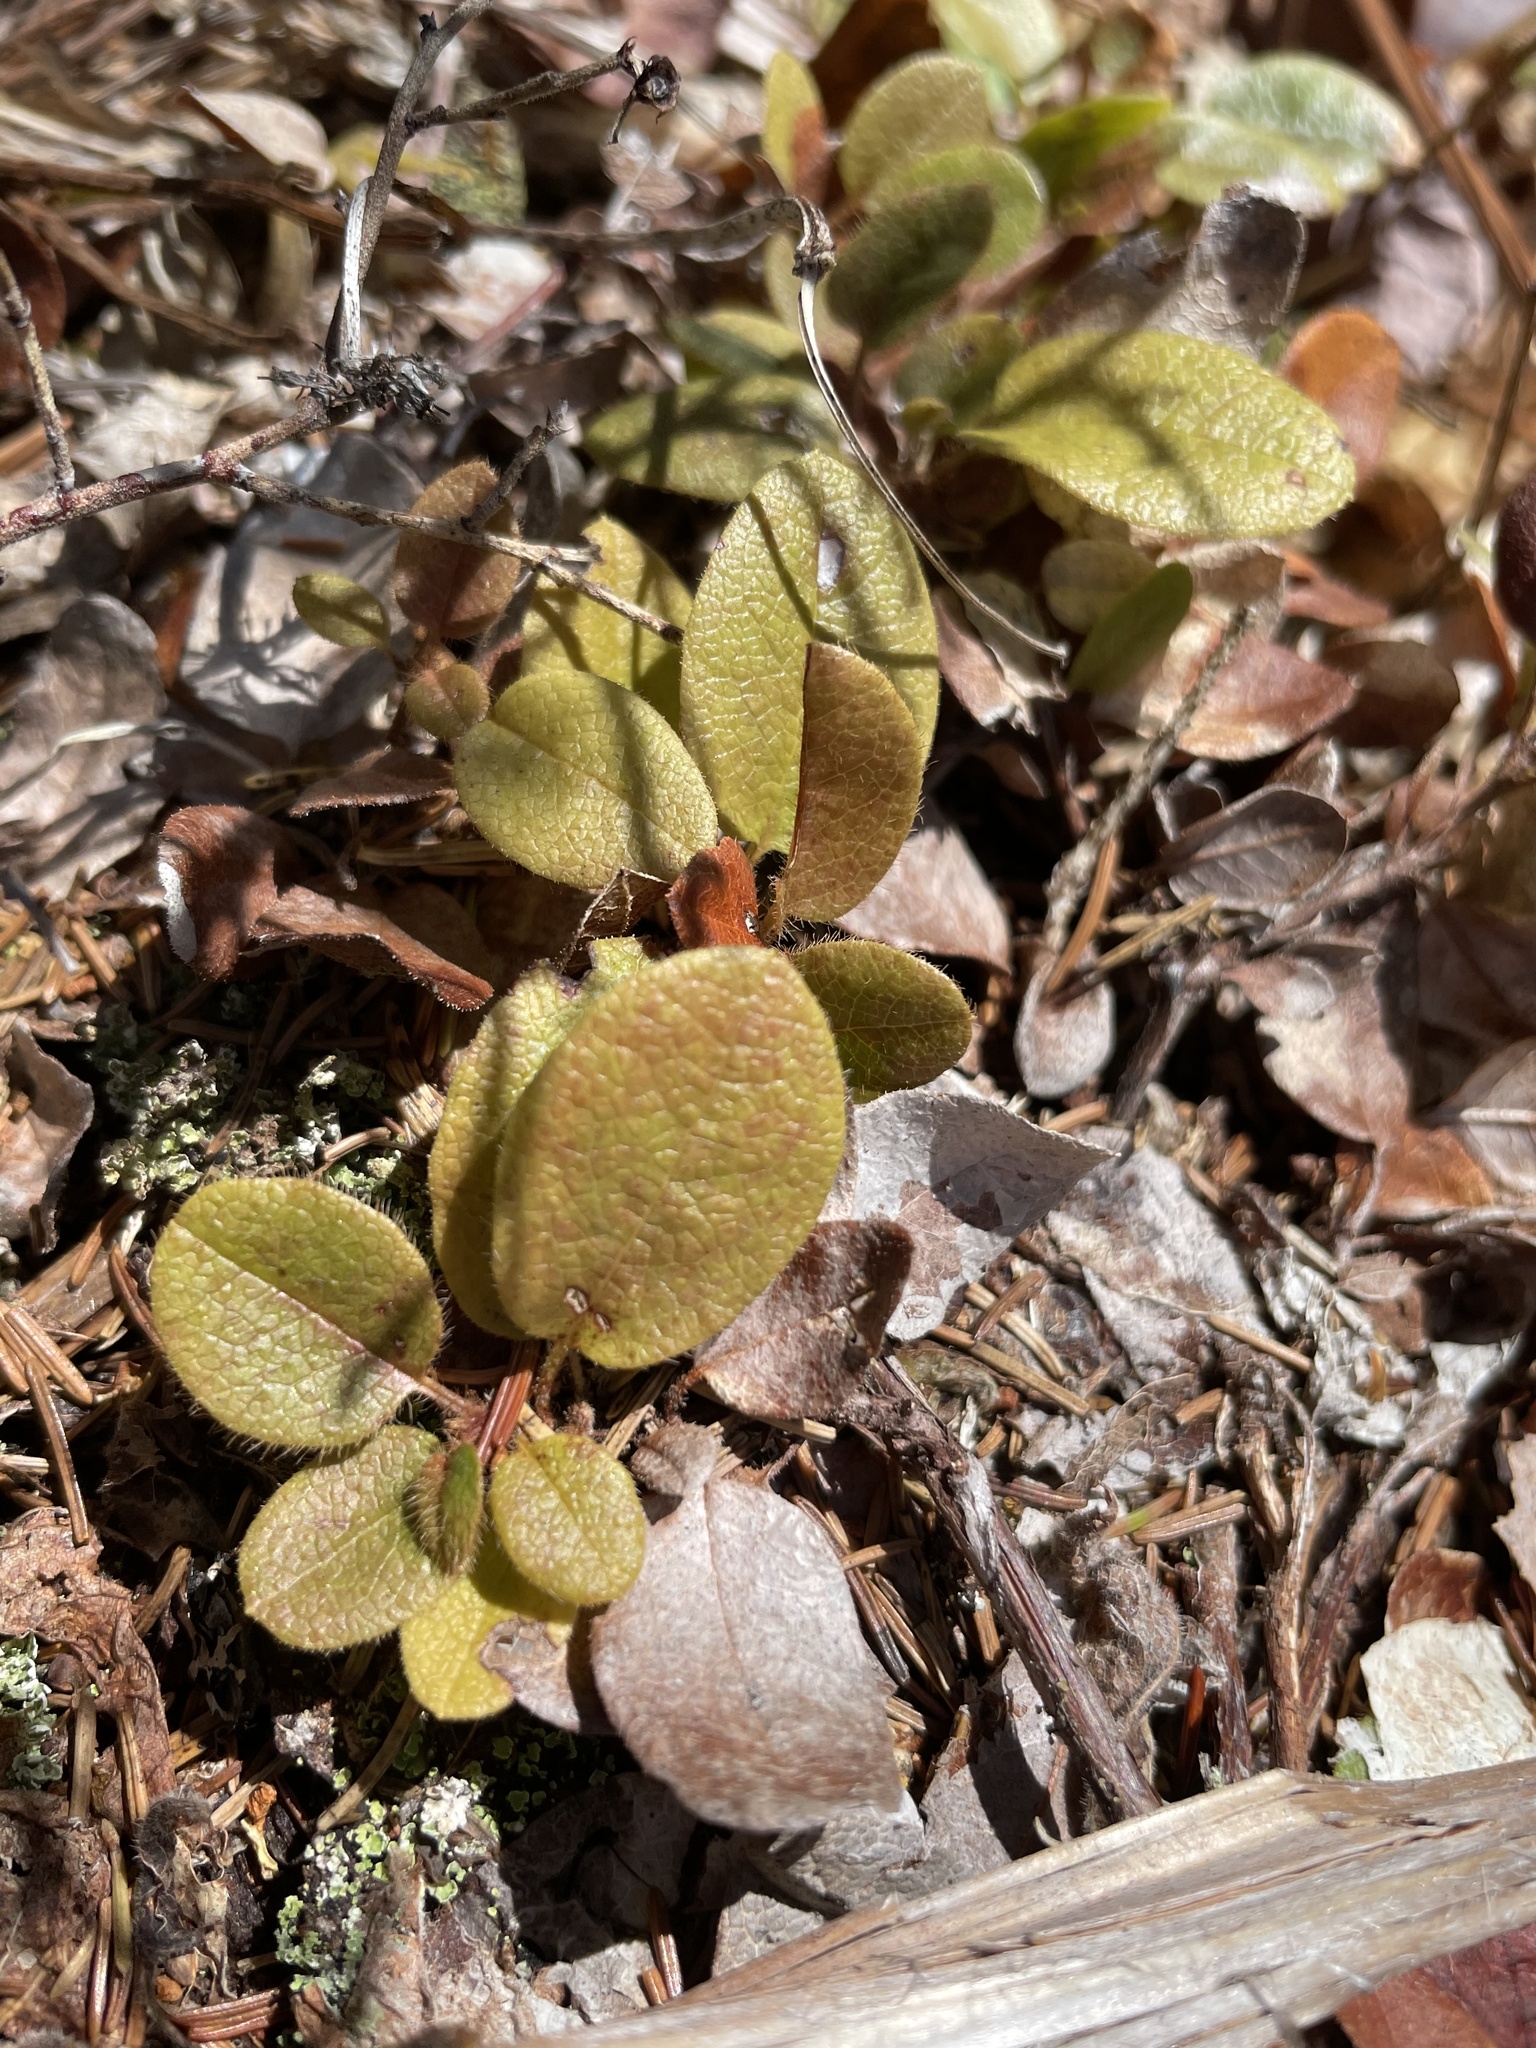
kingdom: Plantae
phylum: Tracheophyta
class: Magnoliopsida
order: Ericales
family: Ericaceae
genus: Epigaea
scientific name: Epigaea repens
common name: Gravelroot
